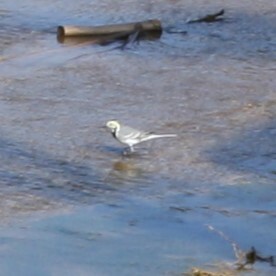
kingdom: Animalia
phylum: Chordata
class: Aves
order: Passeriformes
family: Motacillidae
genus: Motacilla
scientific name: Motacilla alba
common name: White wagtail
